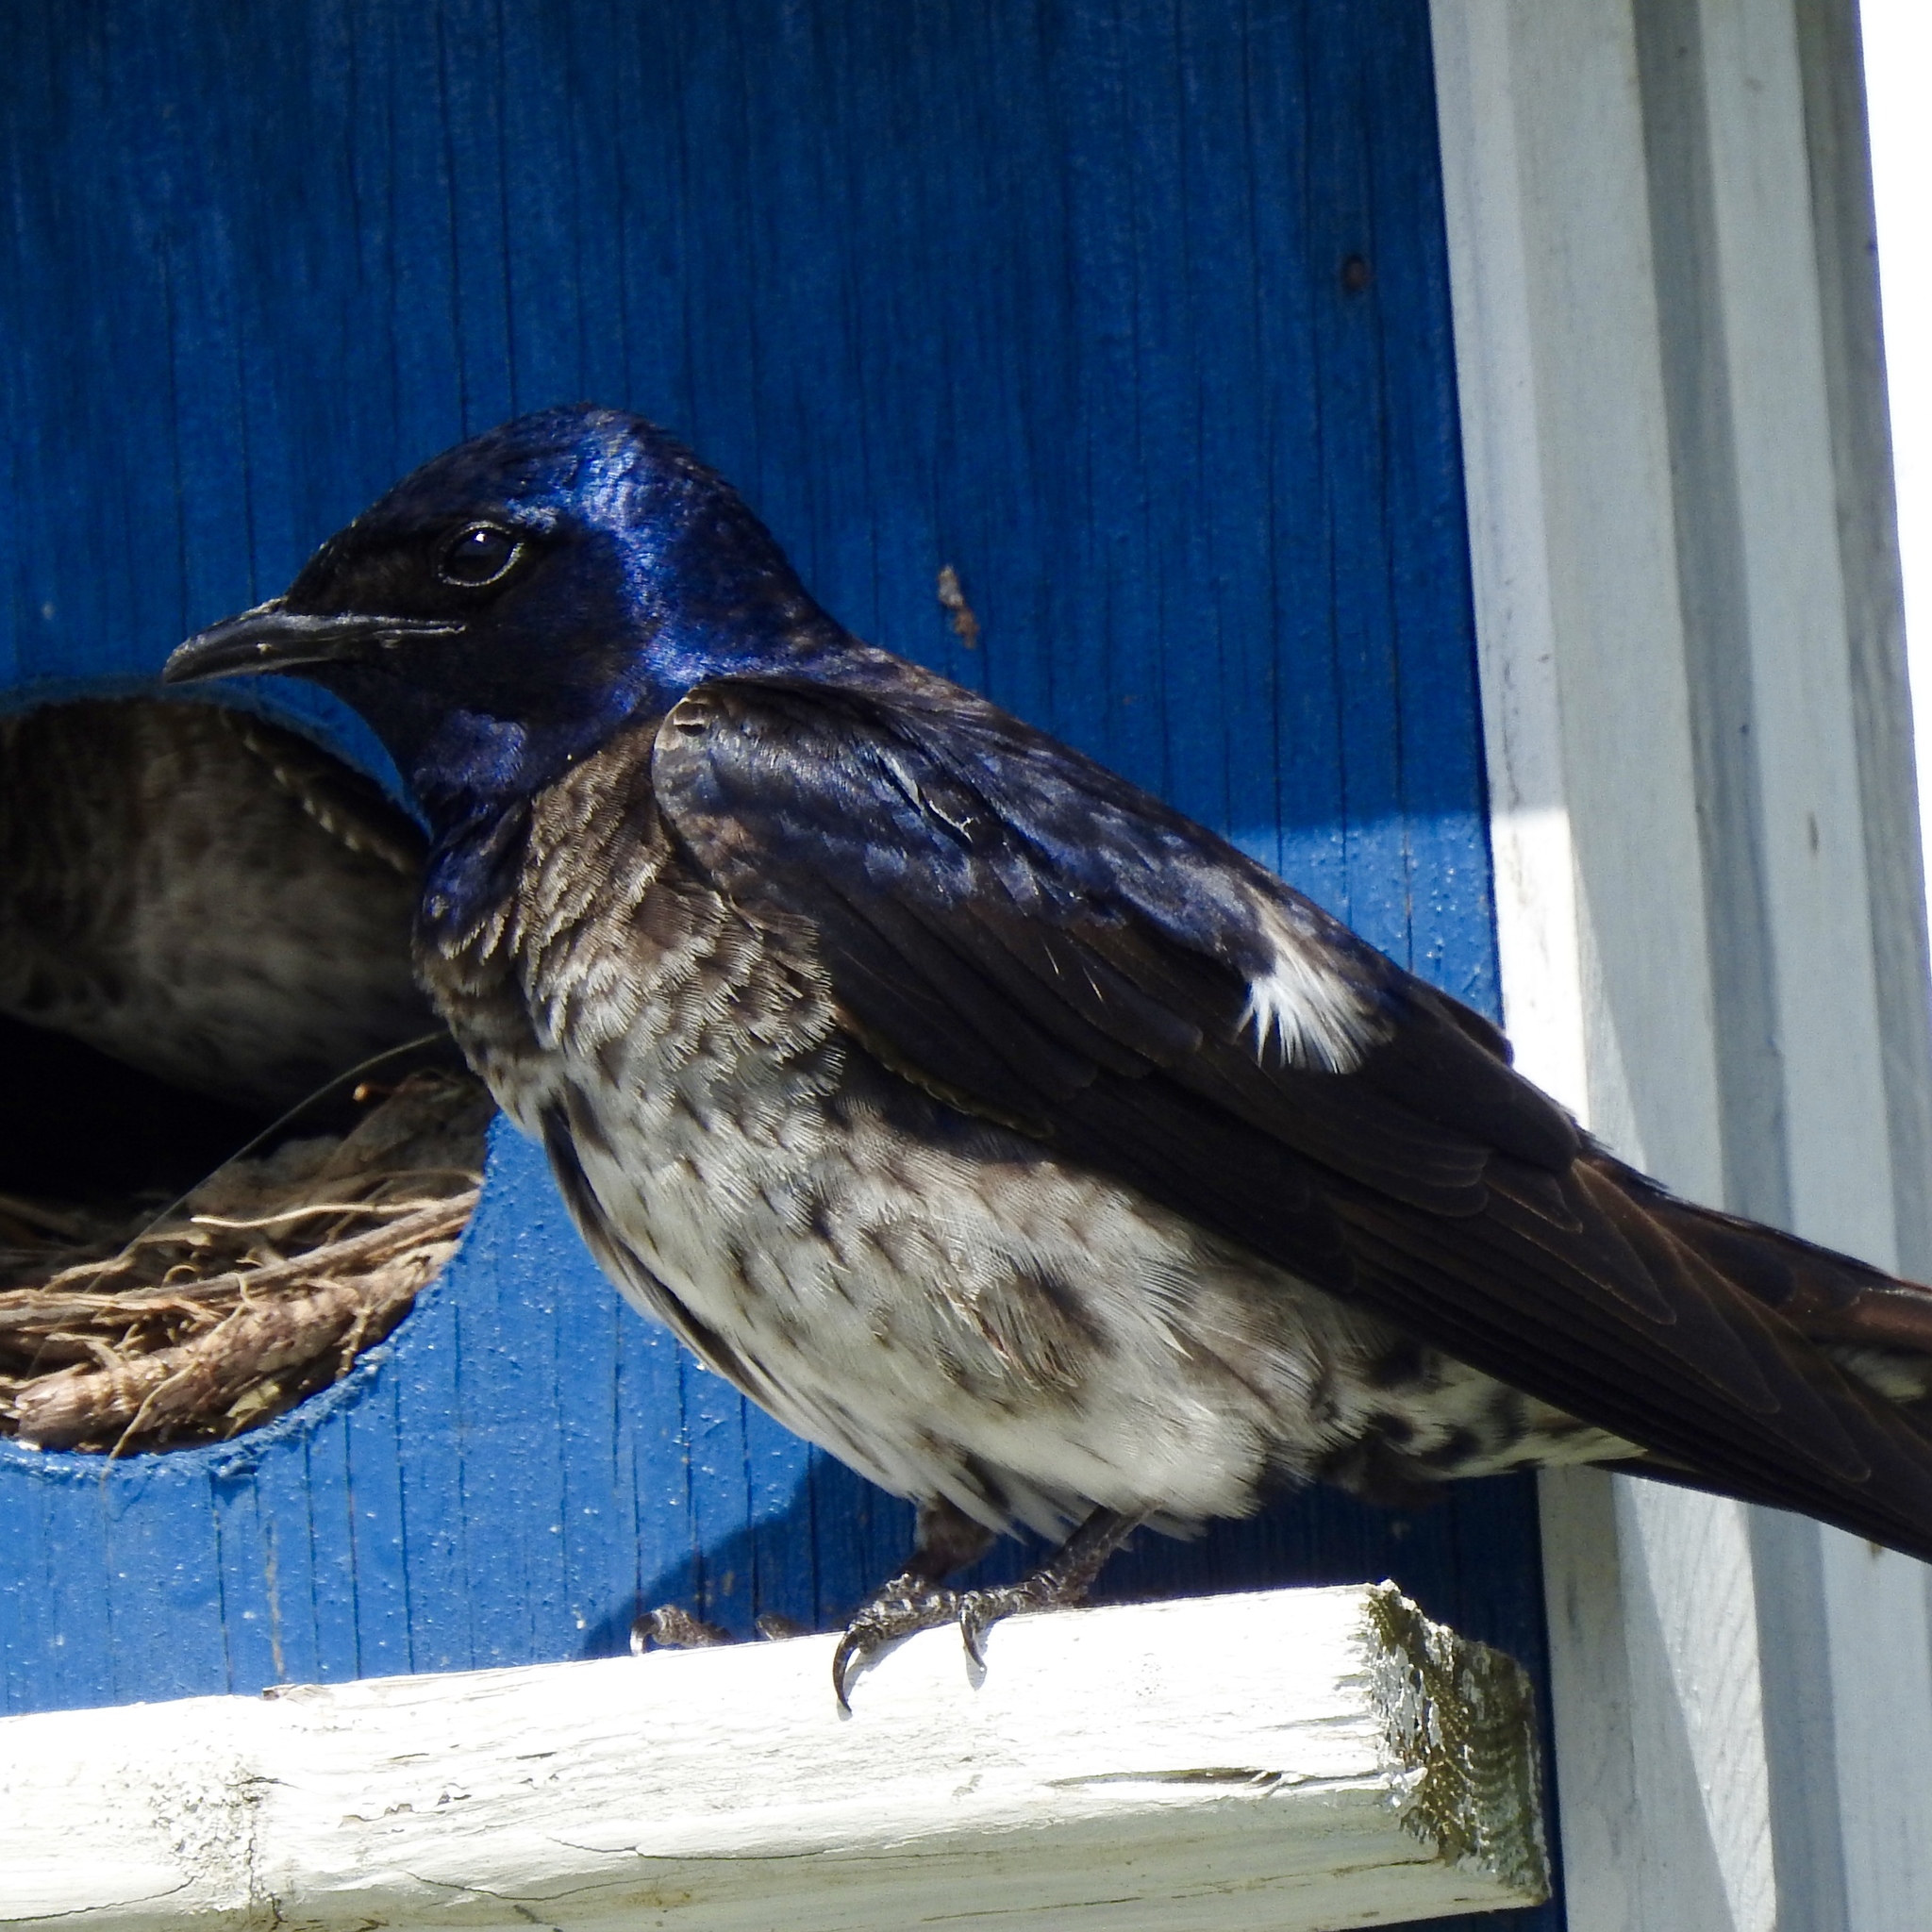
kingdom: Animalia
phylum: Chordata
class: Aves
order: Passeriformes
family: Hirundinidae
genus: Progne
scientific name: Progne subis
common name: Purple martin
